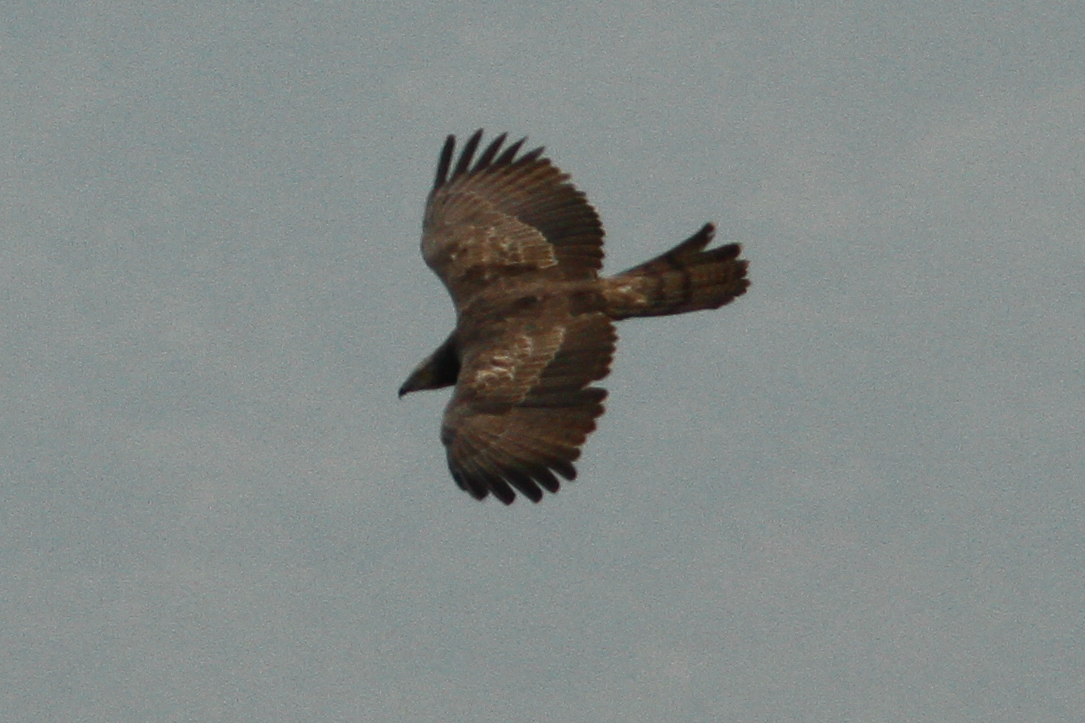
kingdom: Animalia
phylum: Chordata
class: Aves
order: Accipitriformes
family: Accipitridae
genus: Pernis
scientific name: Pernis ptilorhynchus
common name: Crested honey buzzard
